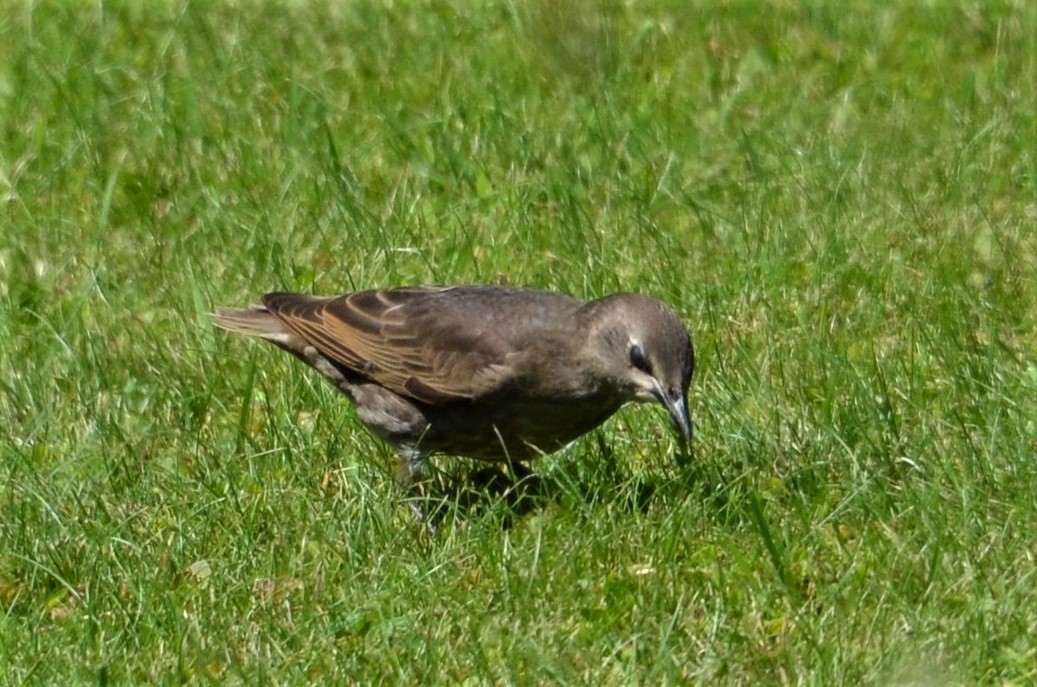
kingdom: Animalia
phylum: Chordata
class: Aves
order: Passeriformes
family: Sturnidae
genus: Sturnus
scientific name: Sturnus vulgaris
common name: Common starling
